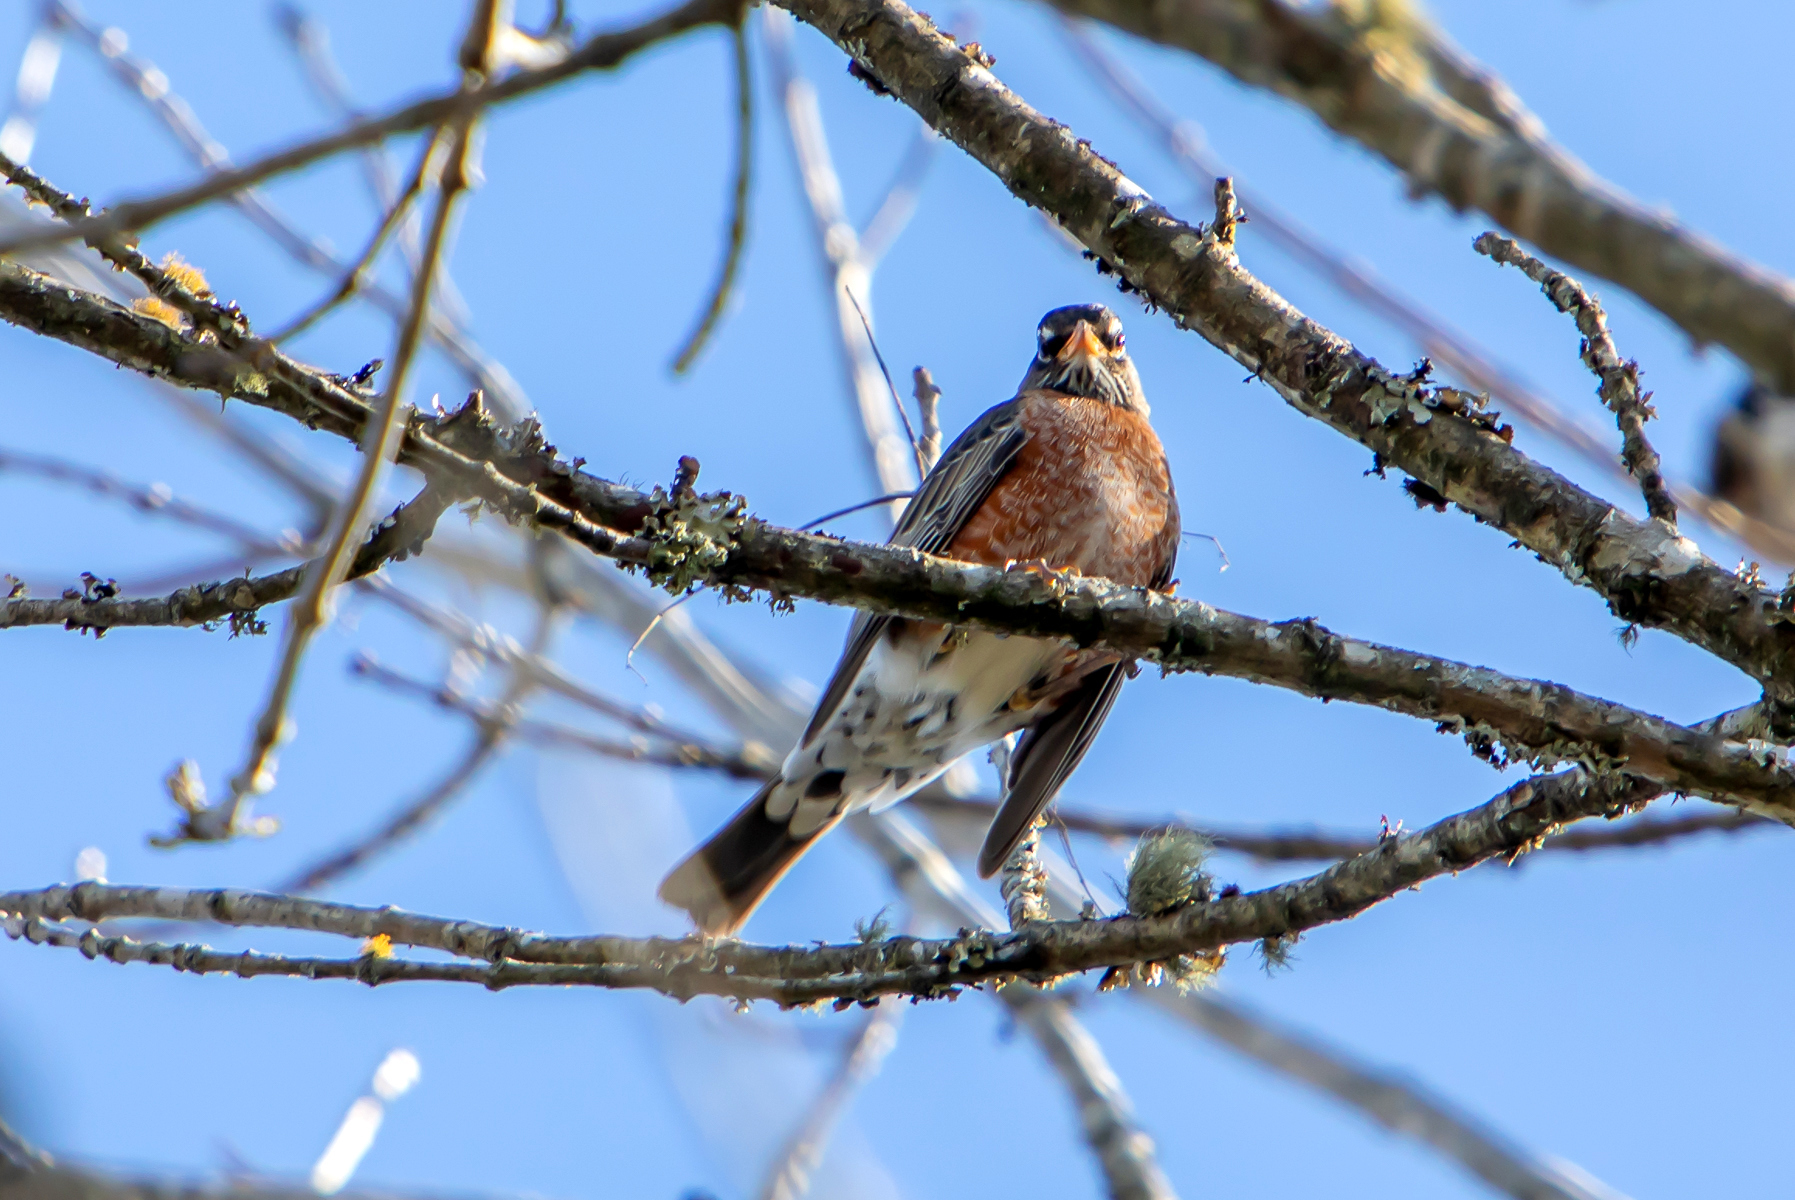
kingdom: Animalia
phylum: Chordata
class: Aves
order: Passeriformes
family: Turdidae
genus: Turdus
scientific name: Turdus migratorius
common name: American robin
